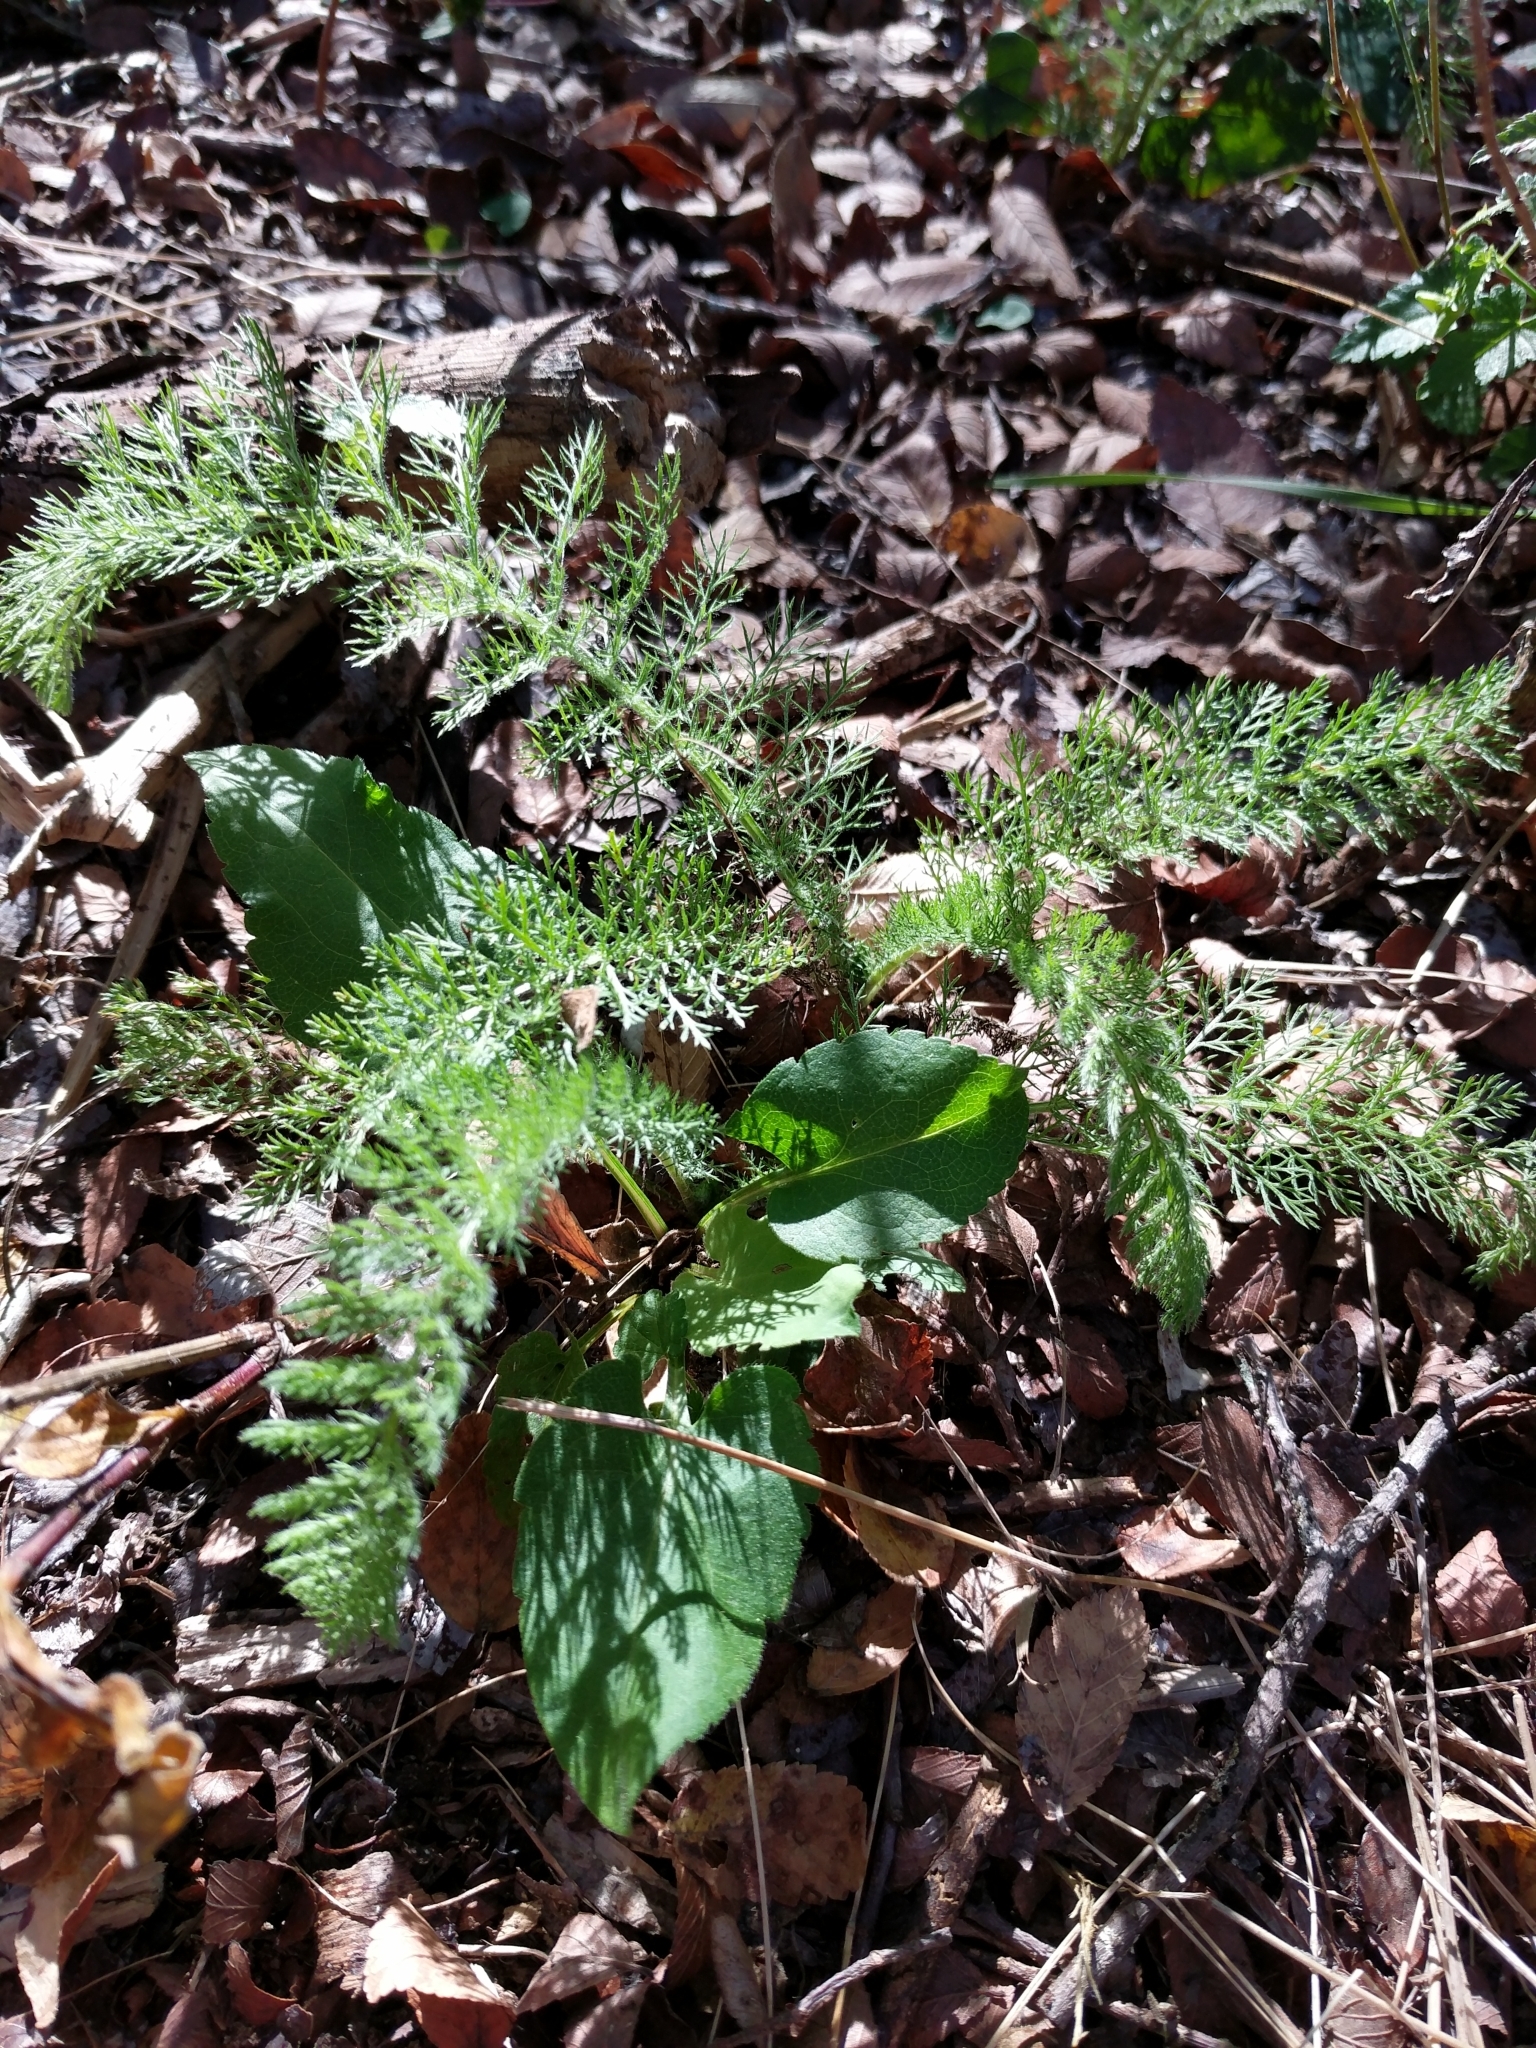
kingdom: Plantae
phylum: Tracheophyta
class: Magnoliopsida
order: Asterales
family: Asteraceae
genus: Achillea
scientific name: Achillea millefolium
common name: Yarrow
